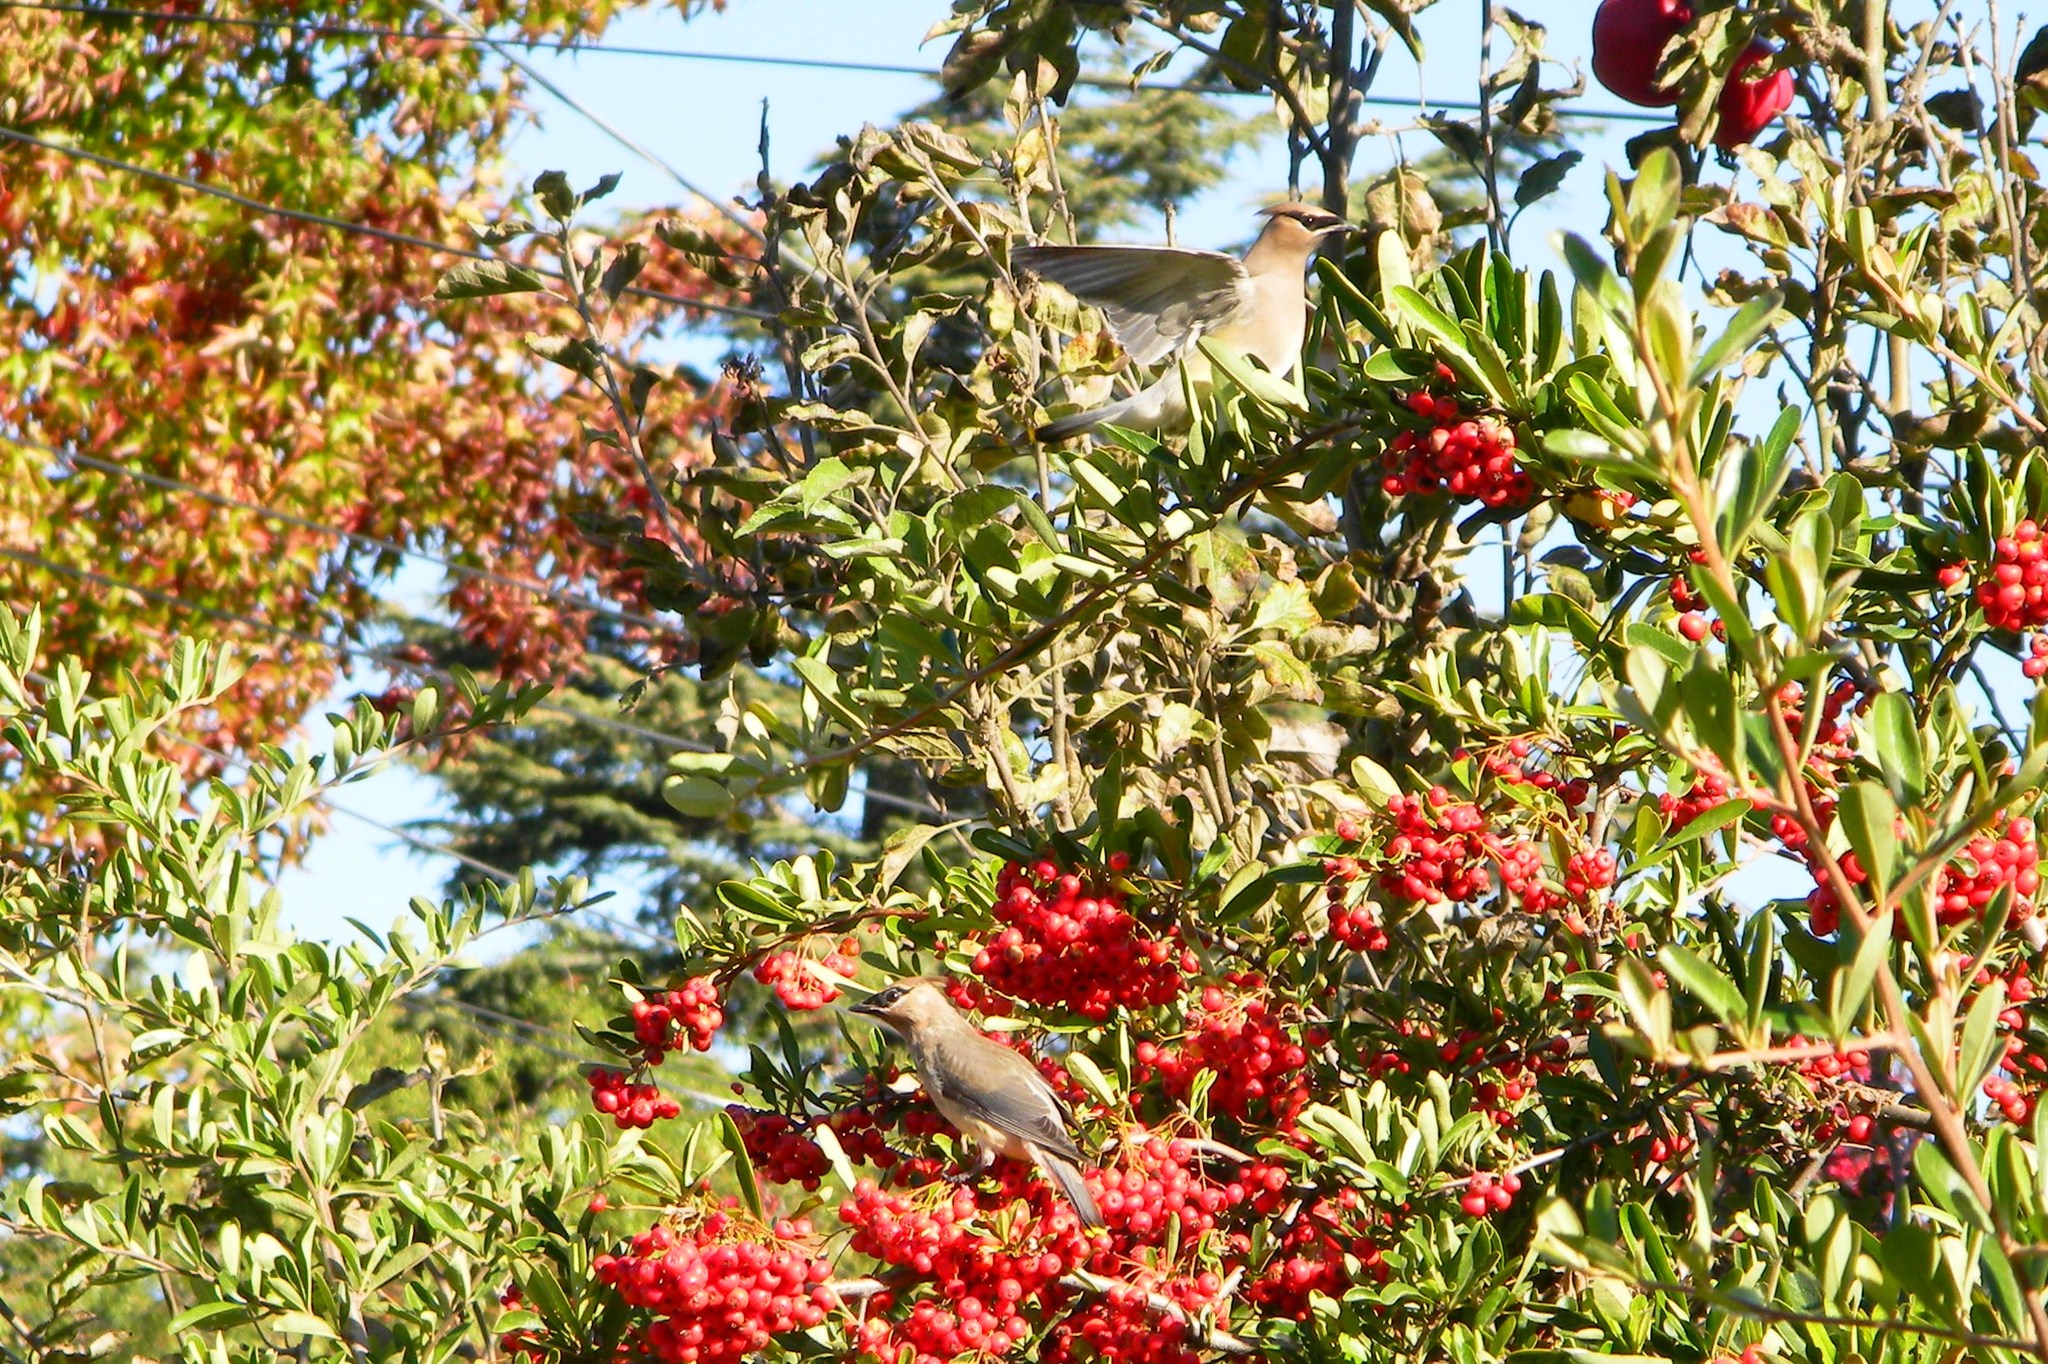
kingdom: Animalia
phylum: Chordata
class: Aves
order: Passeriformes
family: Bombycillidae
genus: Bombycilla
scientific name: Bombycilla cedrorum
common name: Cedar waxwing
